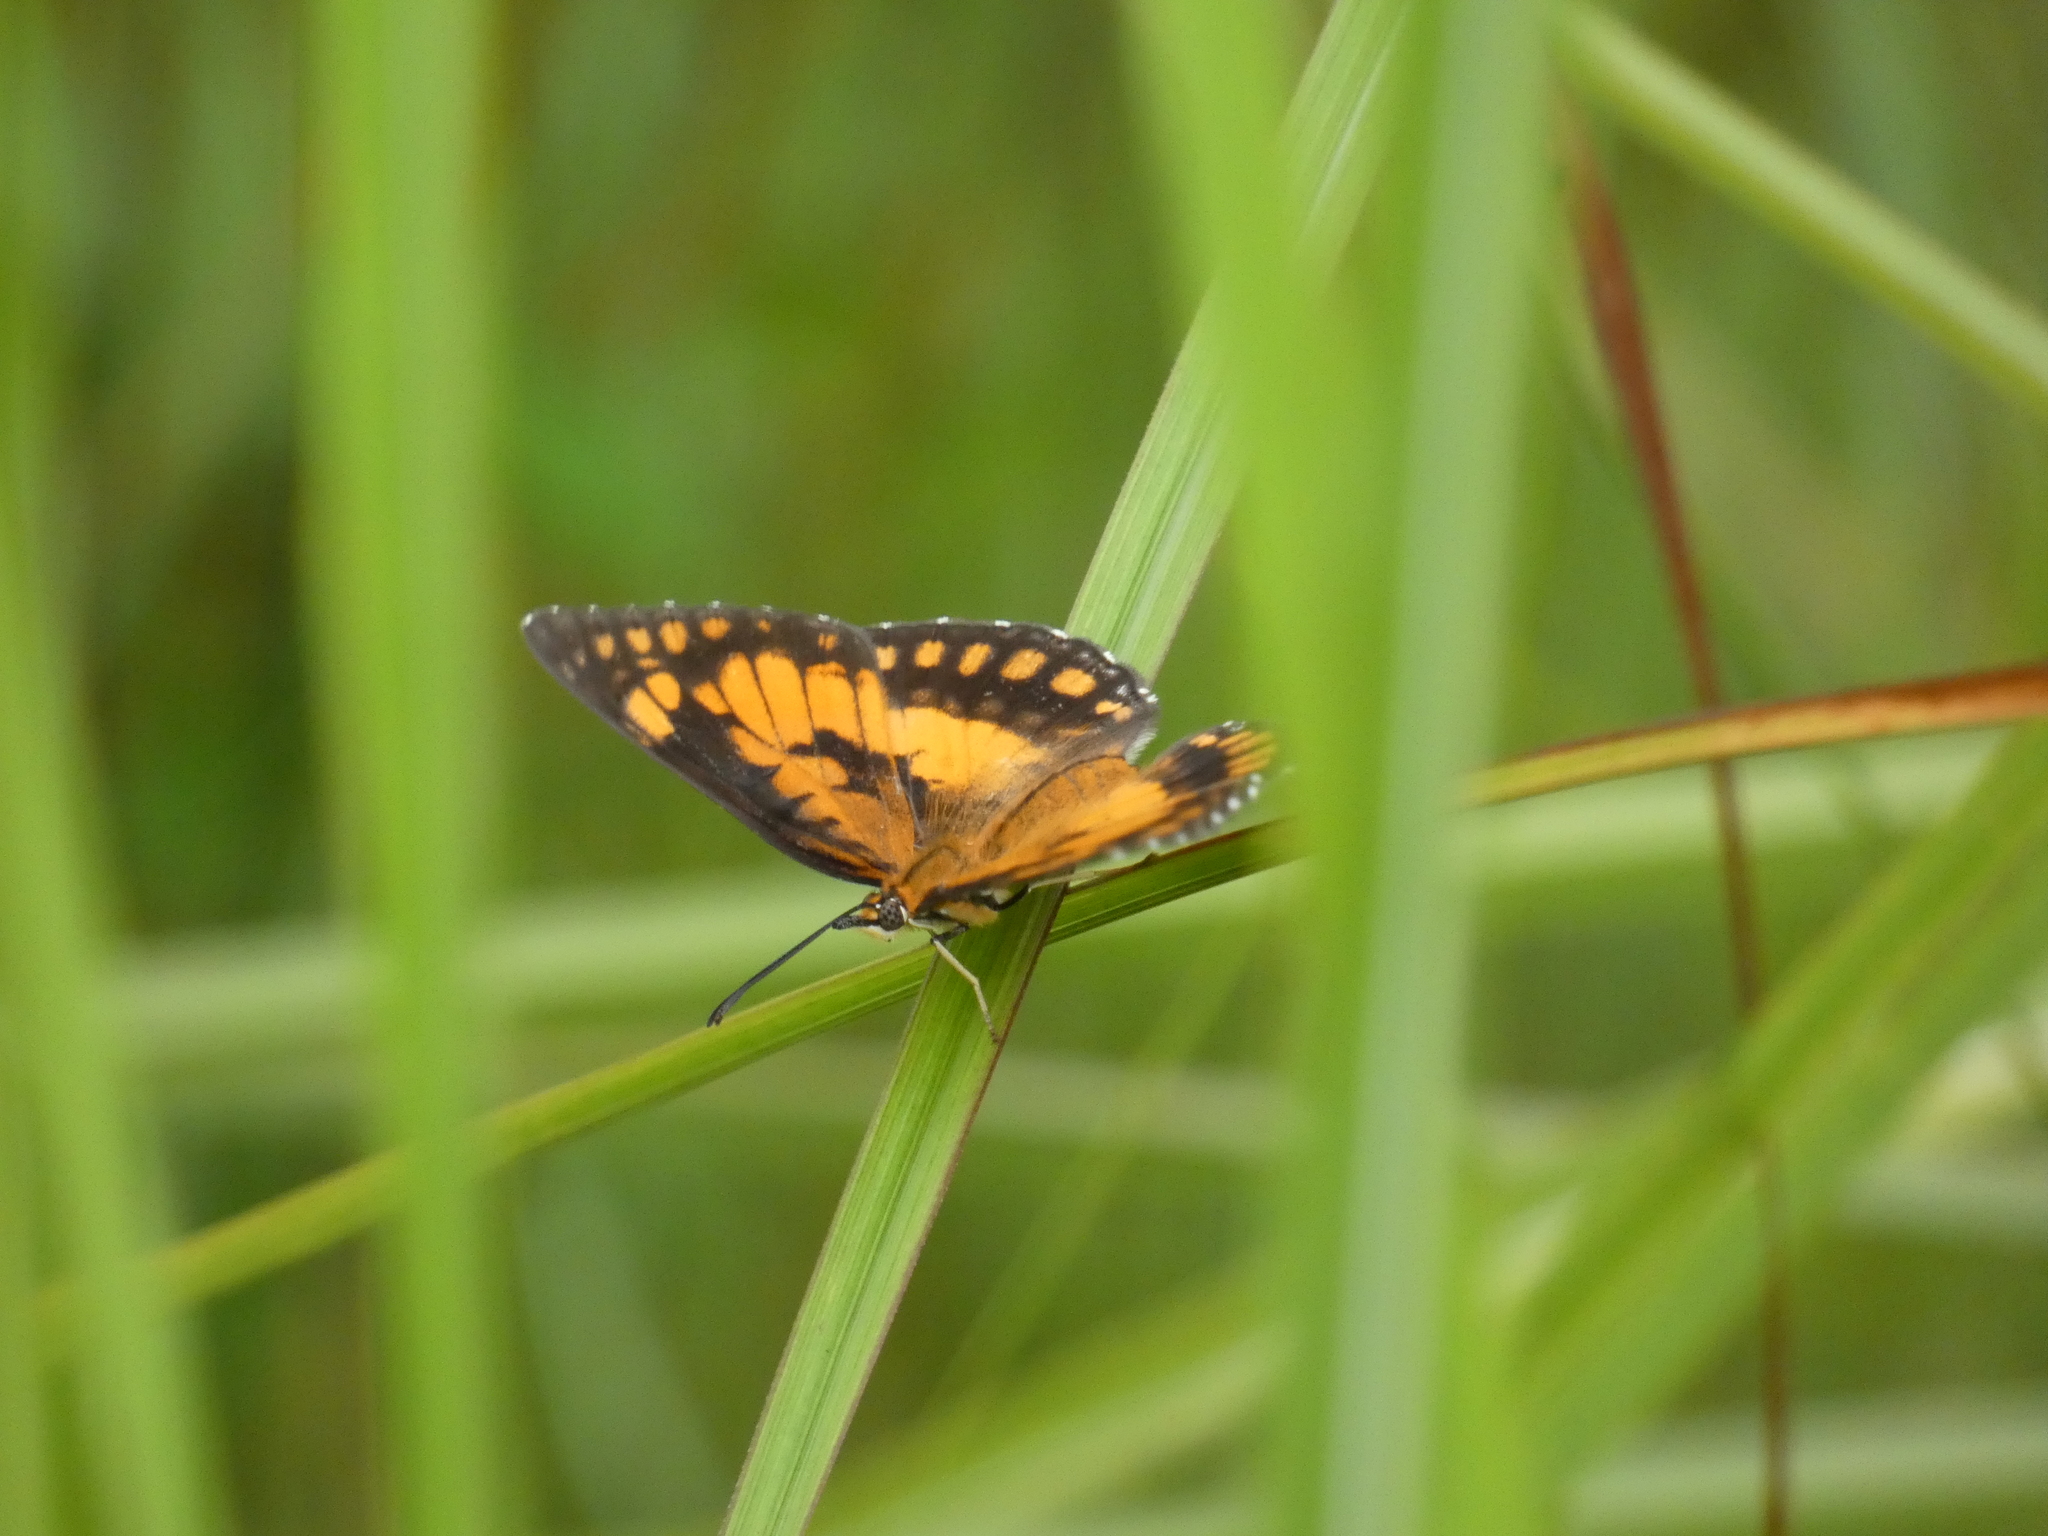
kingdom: Animalia
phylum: Arthropoda
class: Insecta
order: Lepidoptera
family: Nymphalidae
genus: Byblia
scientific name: Byblia anvatara
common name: African joker
